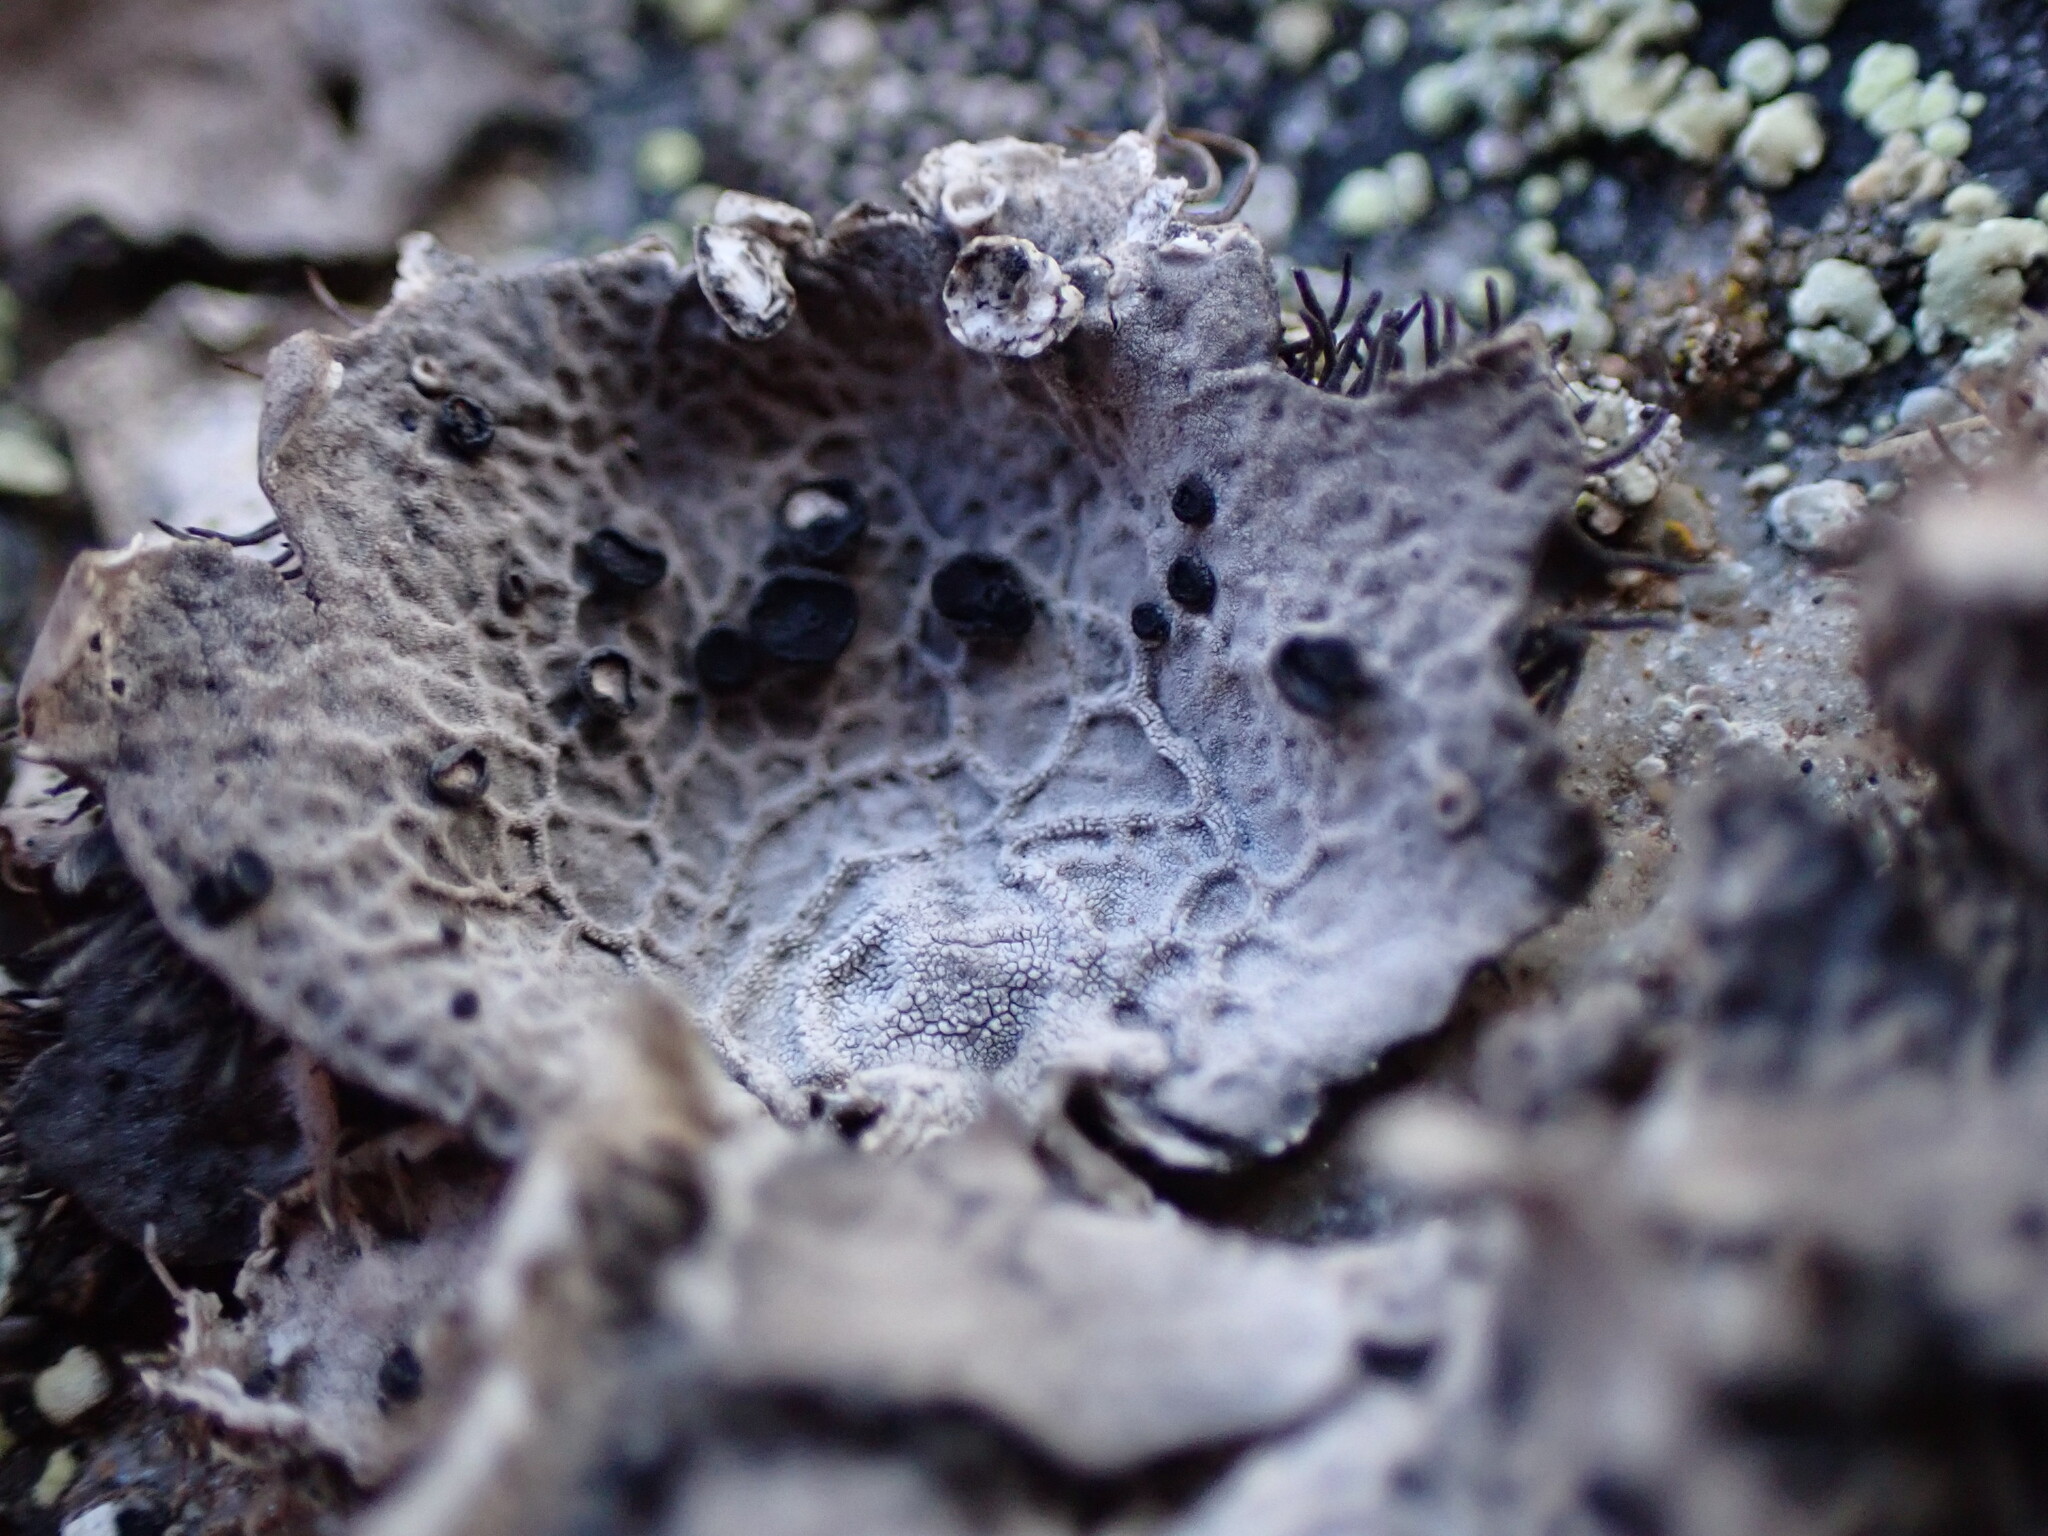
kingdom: Fungi
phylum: Ascomycota
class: Lecanoromycetes
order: Umbilicariales
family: Umbilicariaceae
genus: Umbilicaria
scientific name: Umbilicaria scholanderi
